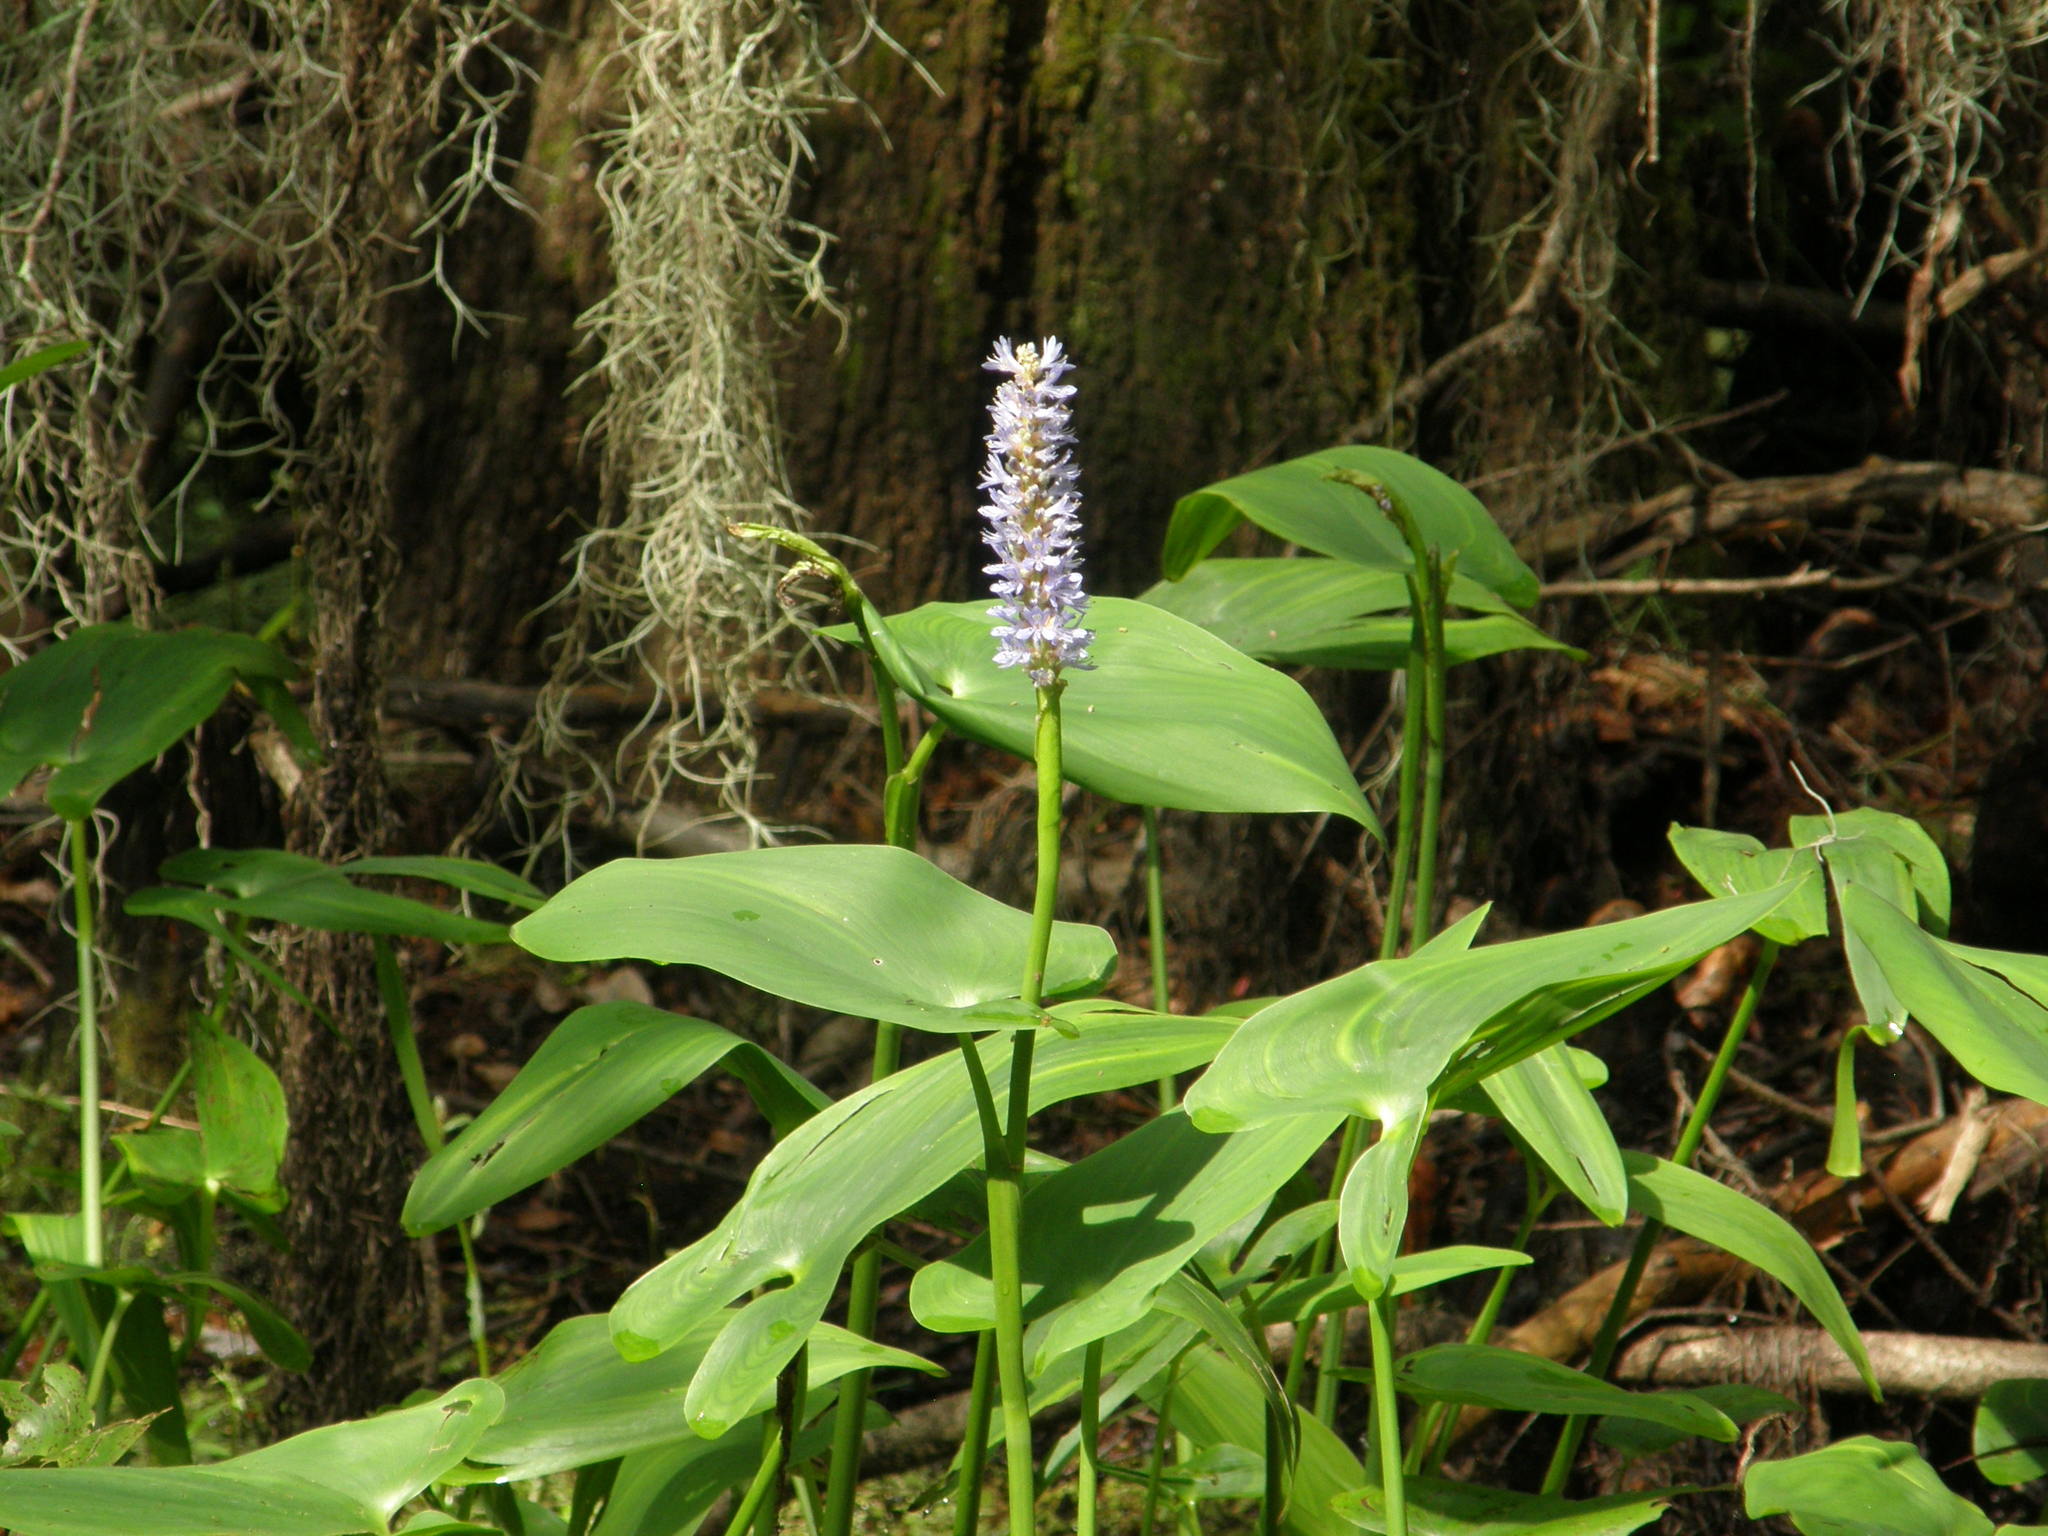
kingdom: Plantae
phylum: Tracheophyta
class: Liliopsida
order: Commelinales
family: Pontederiaceae
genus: Pontederia
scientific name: Pontederia cordata
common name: Pickerelweed
